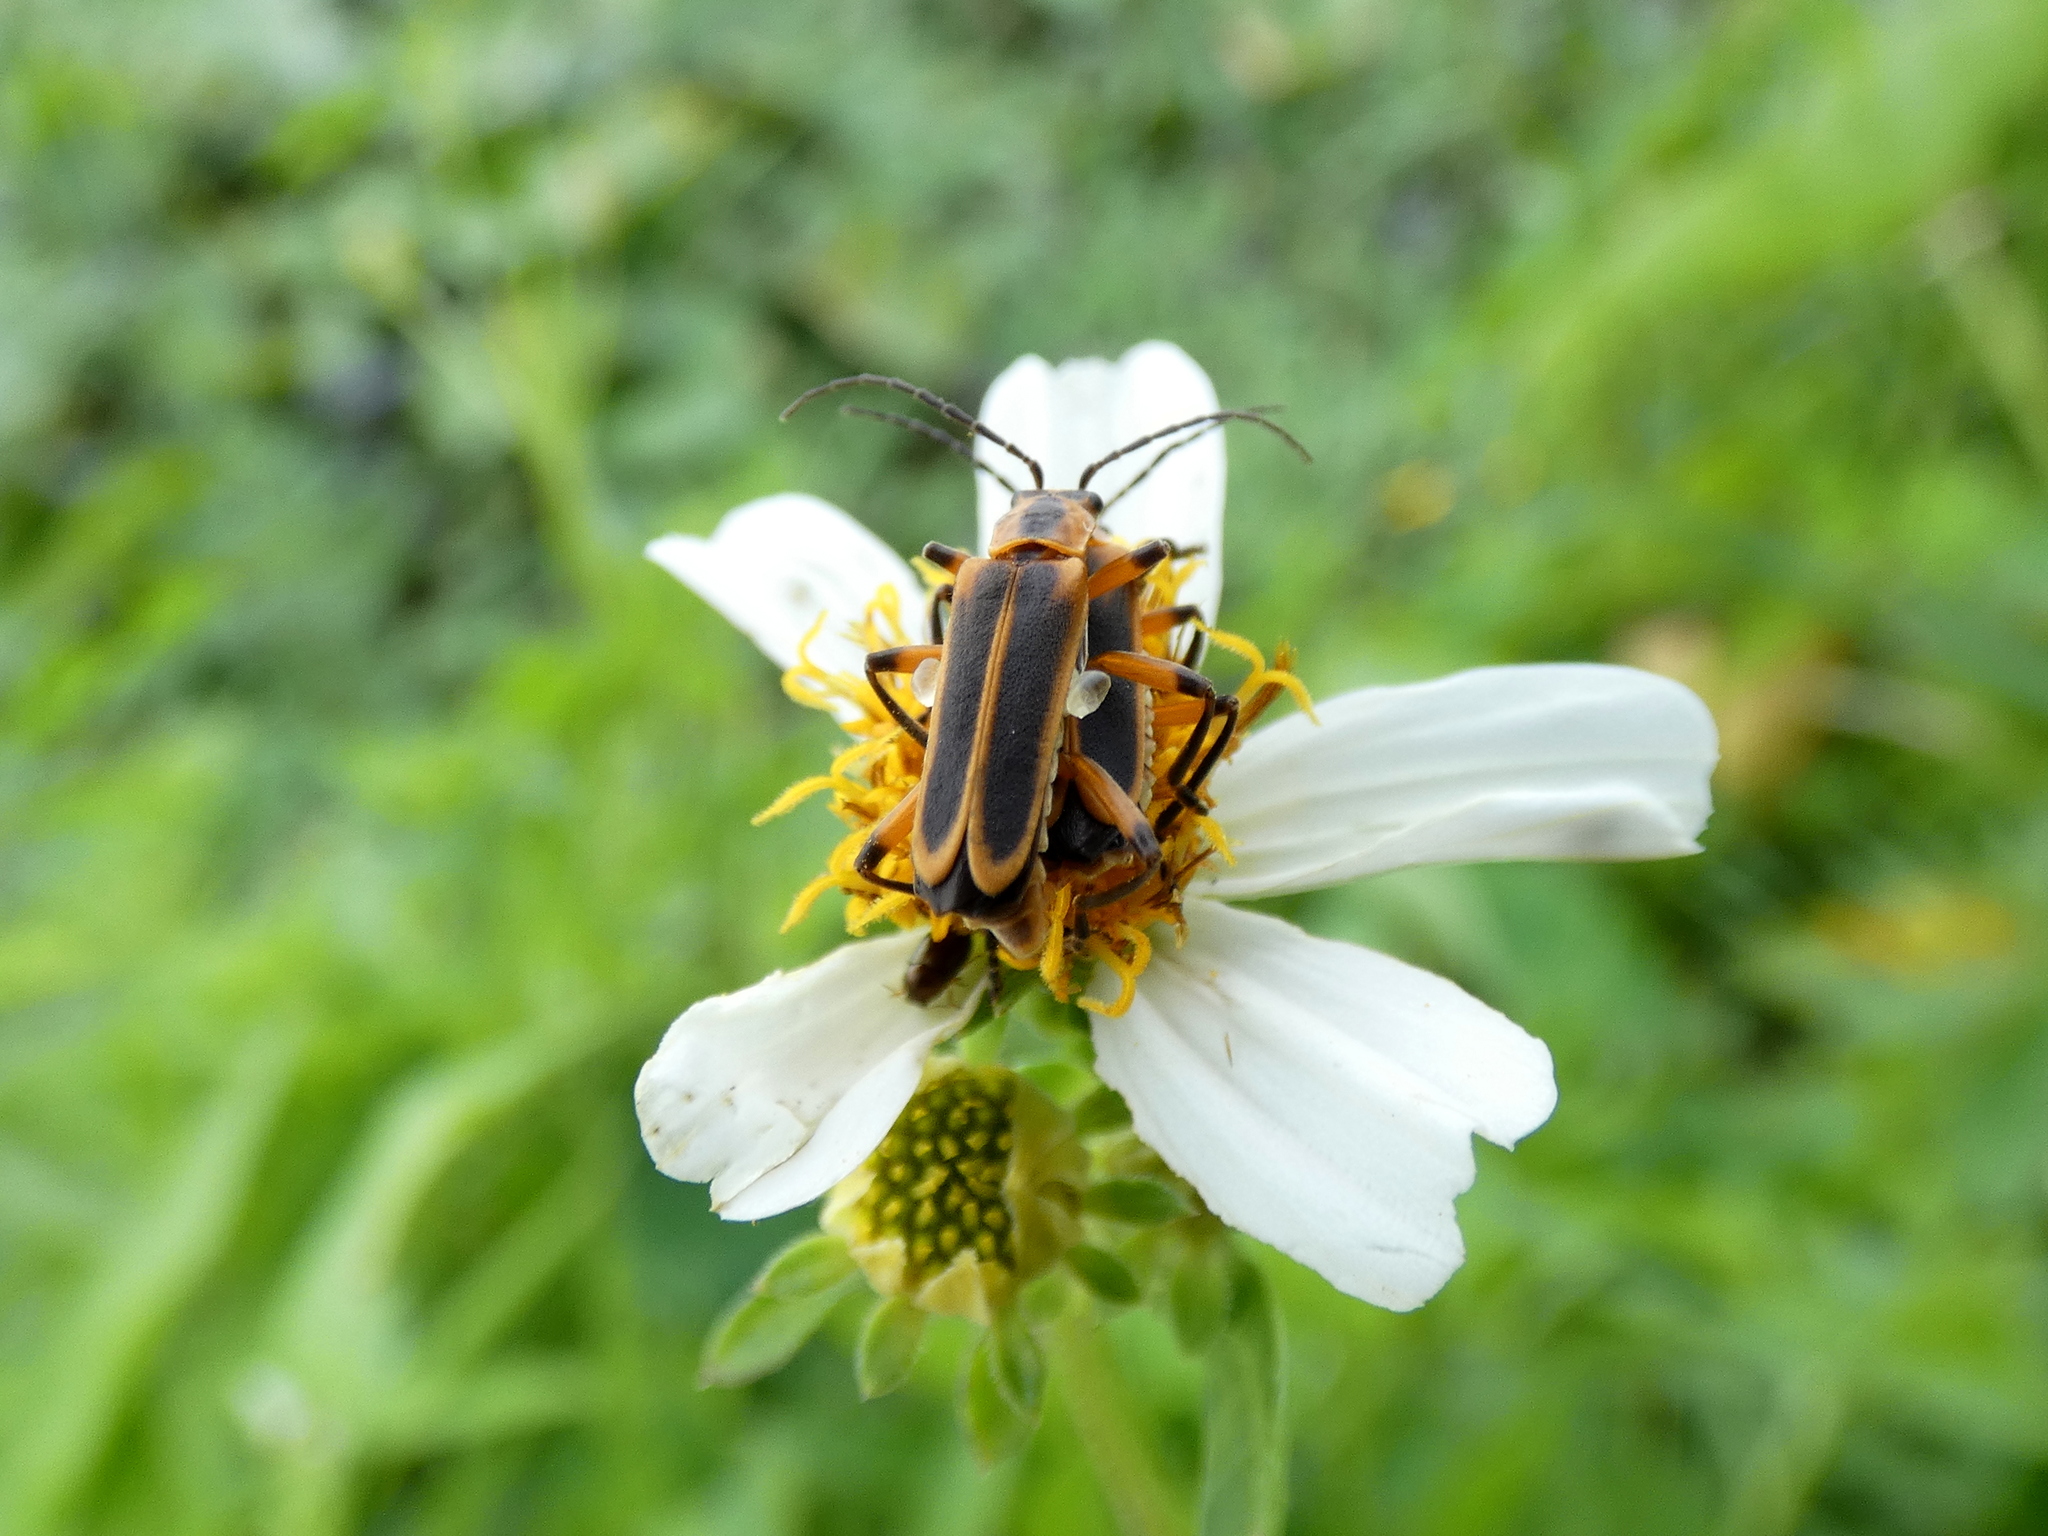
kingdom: Animalia
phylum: Arthropoda
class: Insecta
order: Coleoptera
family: Cantharidae
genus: Chauliognathus
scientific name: Chauliognathus marginatus
